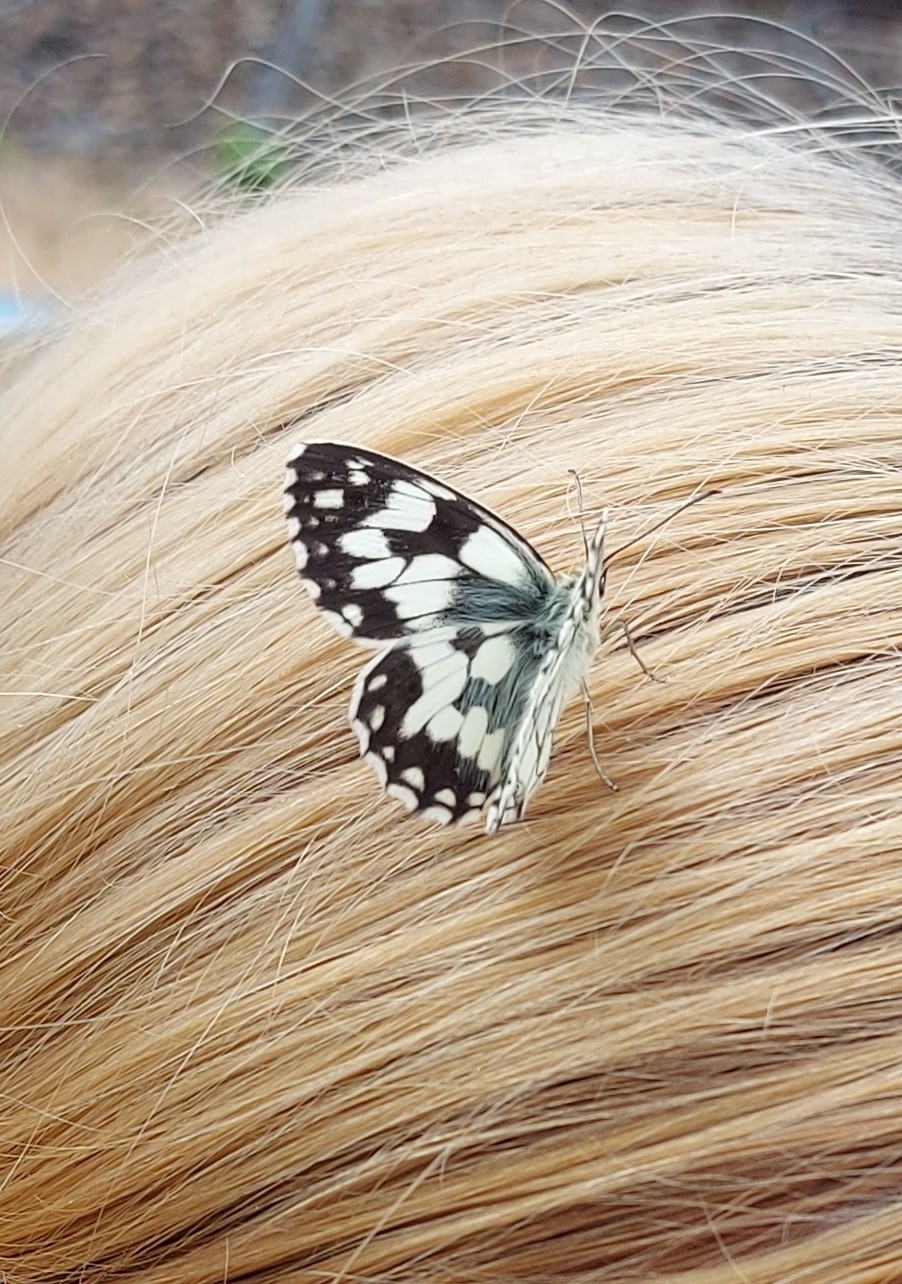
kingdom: Animalia
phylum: Arthropoda
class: Insecta
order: Lepidoptera
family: Nymphalidae
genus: Melanargia
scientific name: Melanargia galathea
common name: Marbled white
